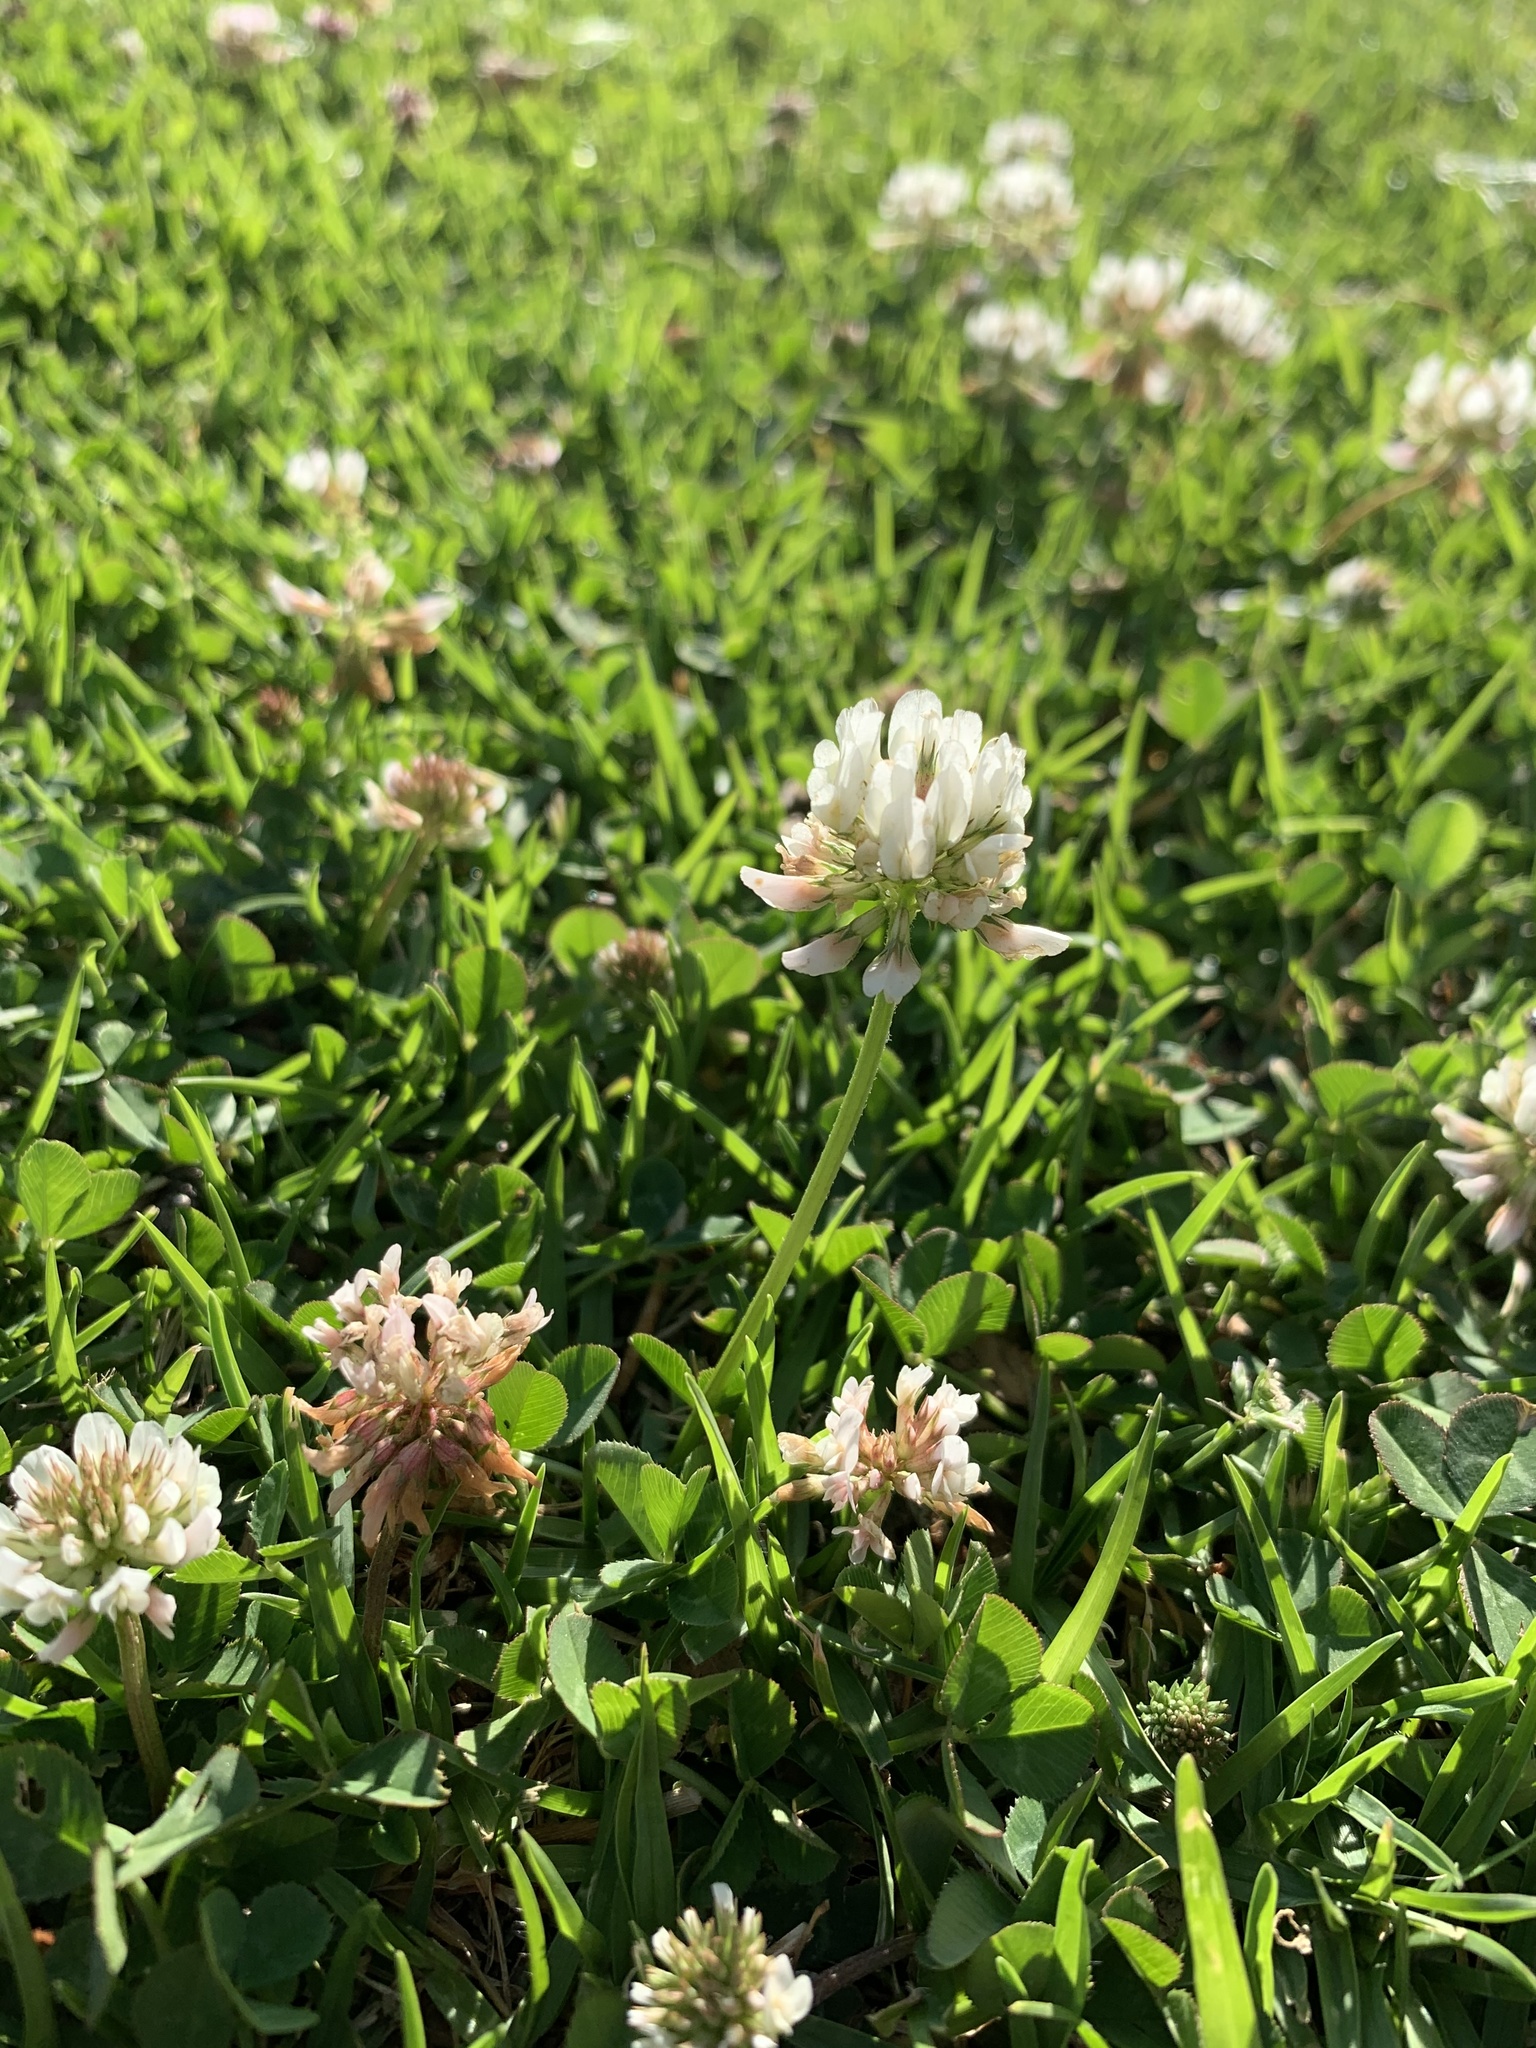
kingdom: Plantae
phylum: Tracheophyta
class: Magnoliopsida
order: Fabales
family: Fabaceae
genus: Trifolium
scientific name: Trifolium repens
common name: White clover
